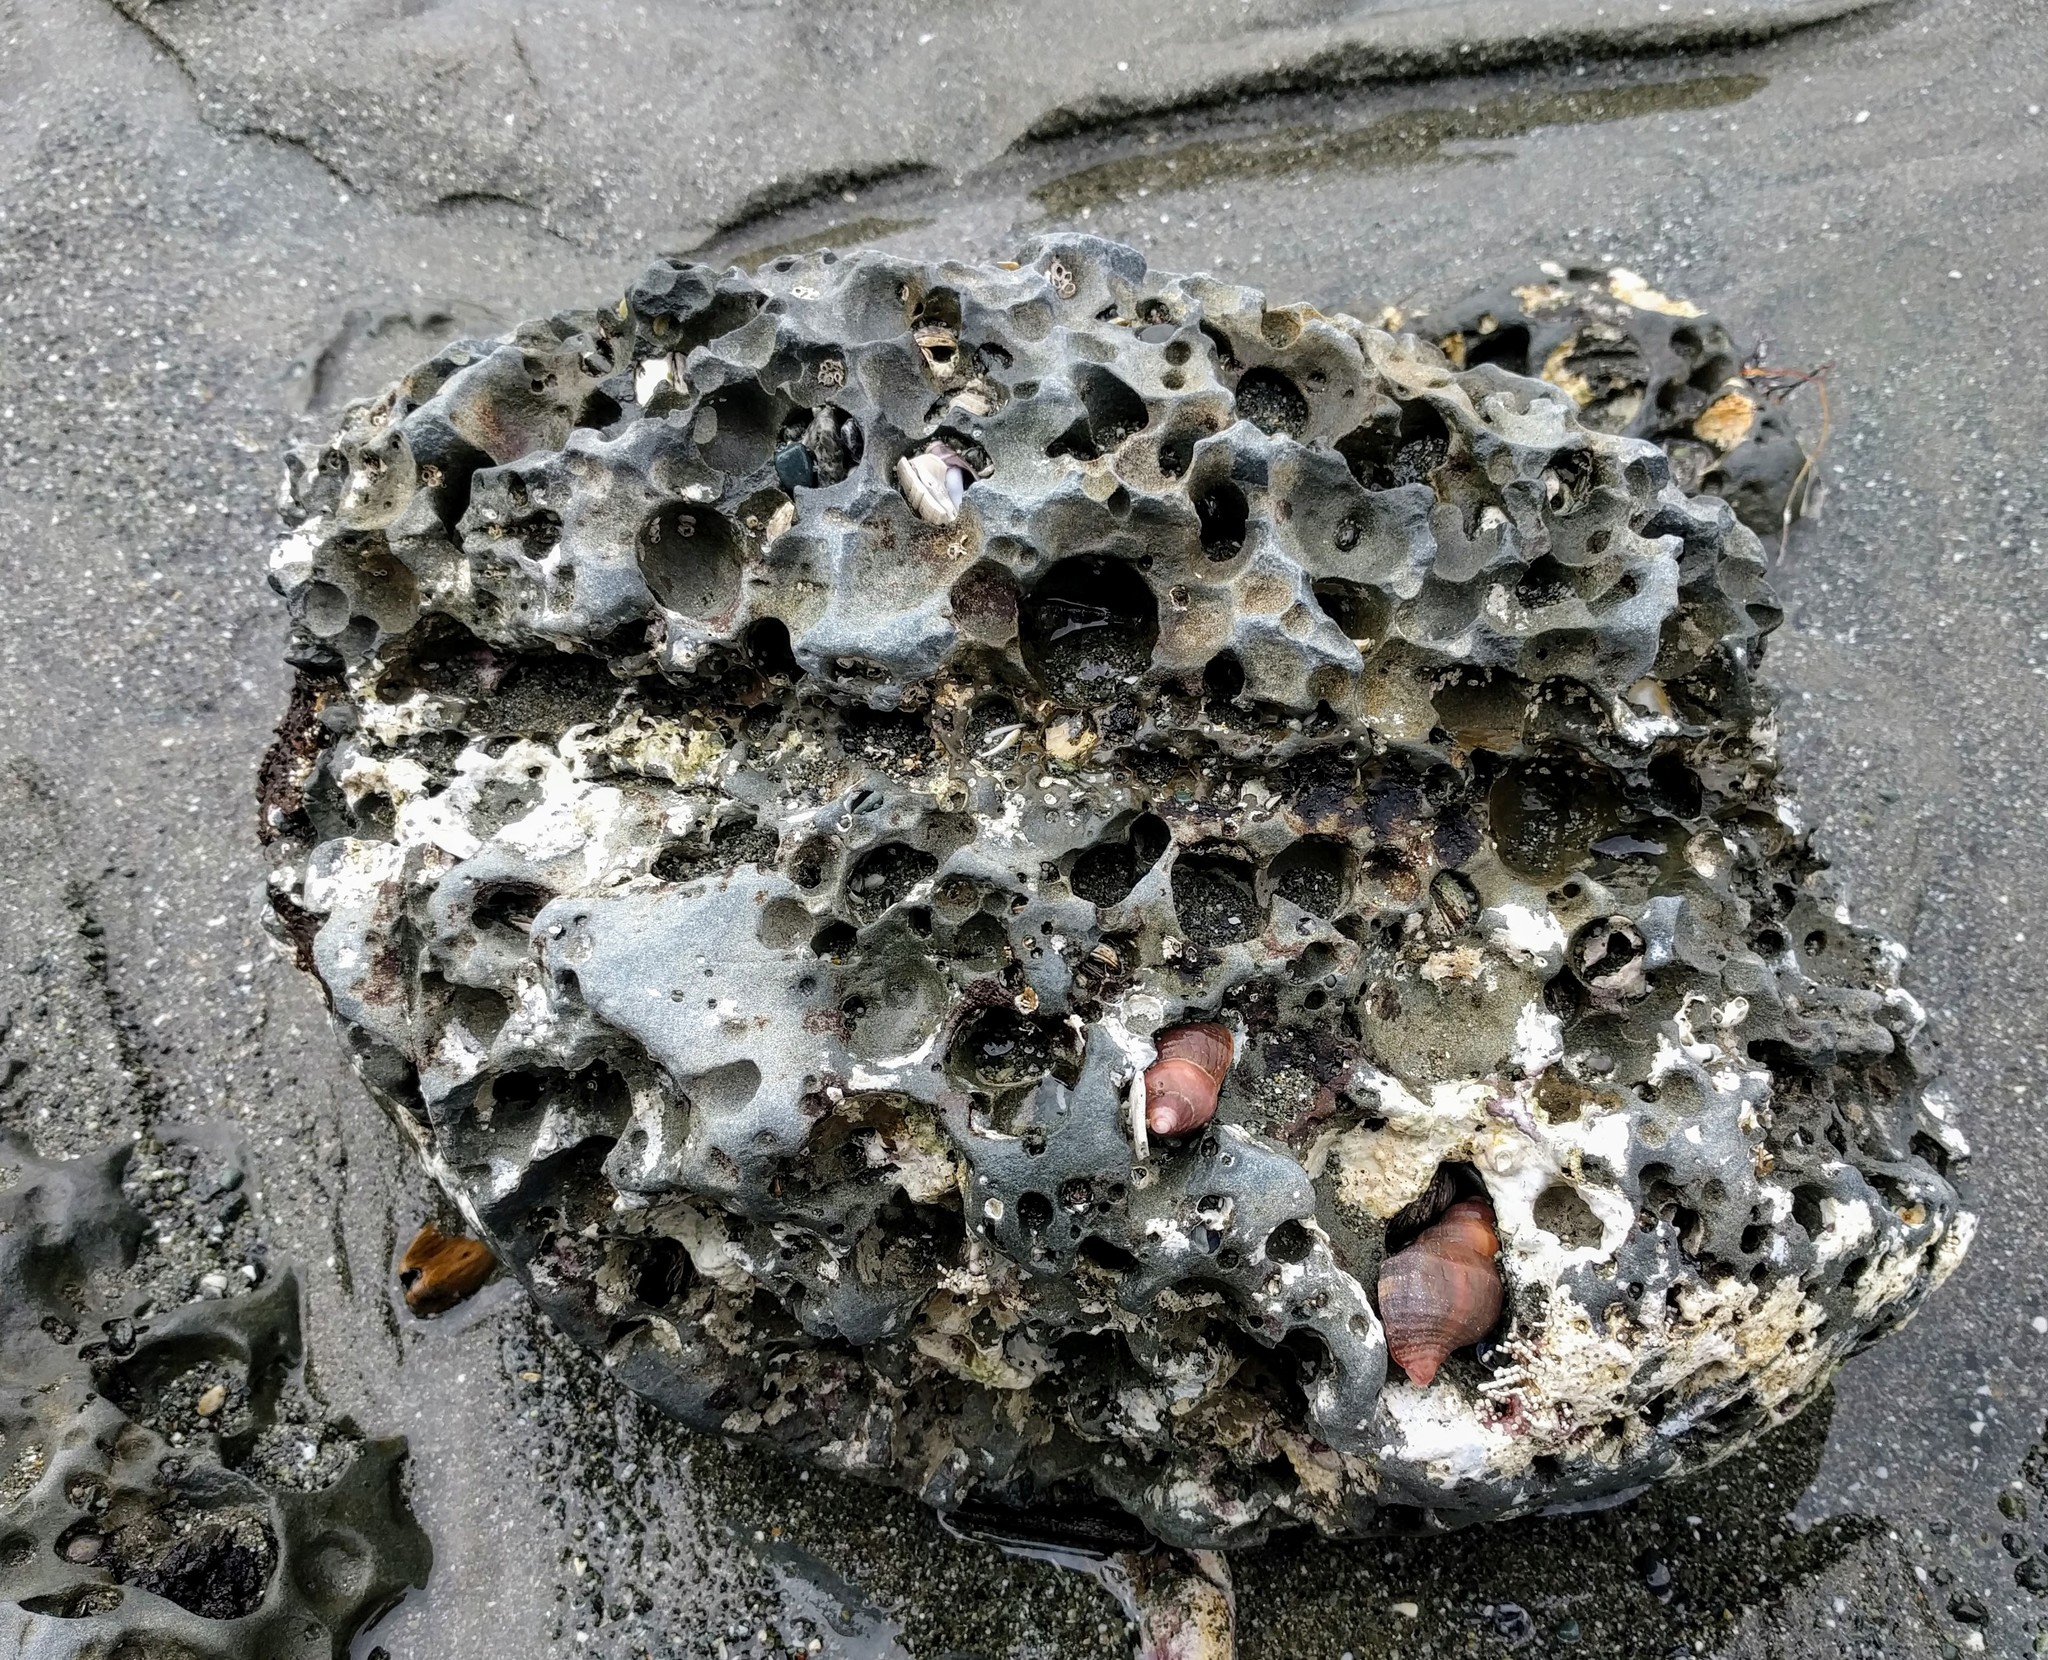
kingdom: Animalia
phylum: Mollusca
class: Gastropoda
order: Neogastropoda
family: Muricidae
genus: Nucella
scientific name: Nucella lamellosa
